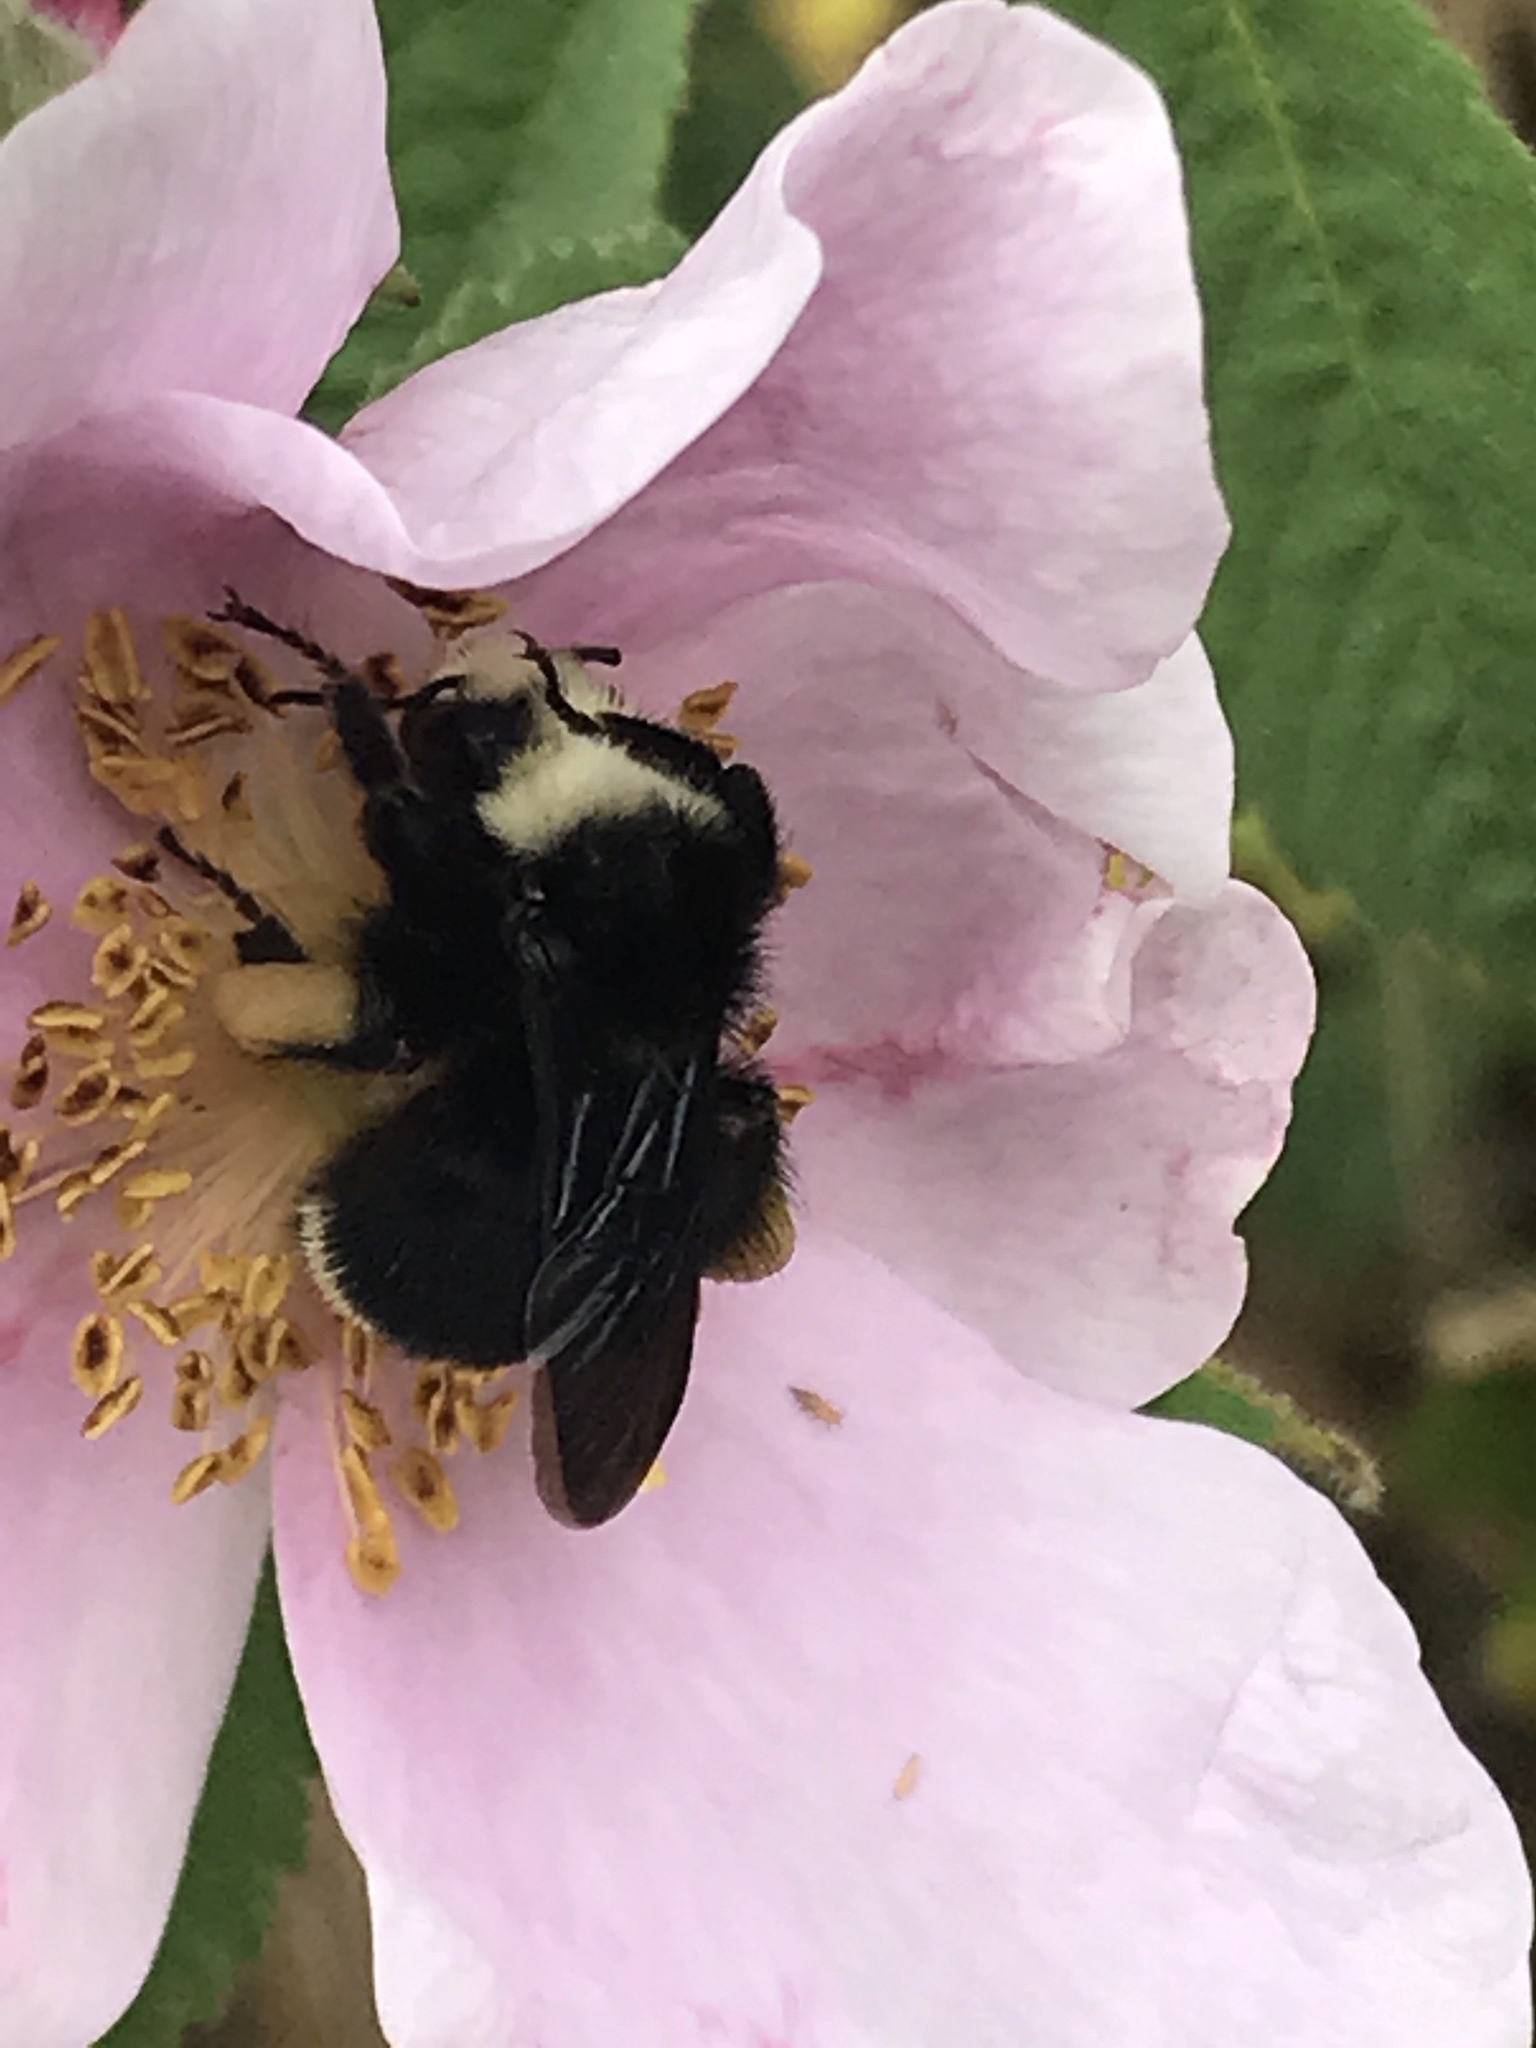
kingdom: Animalia
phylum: Arthropoda
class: Insecta
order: Hymenoptera
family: Apidae
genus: Bombus
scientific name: Bombus vosnesenskii
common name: Vosnesensky bumble bee
